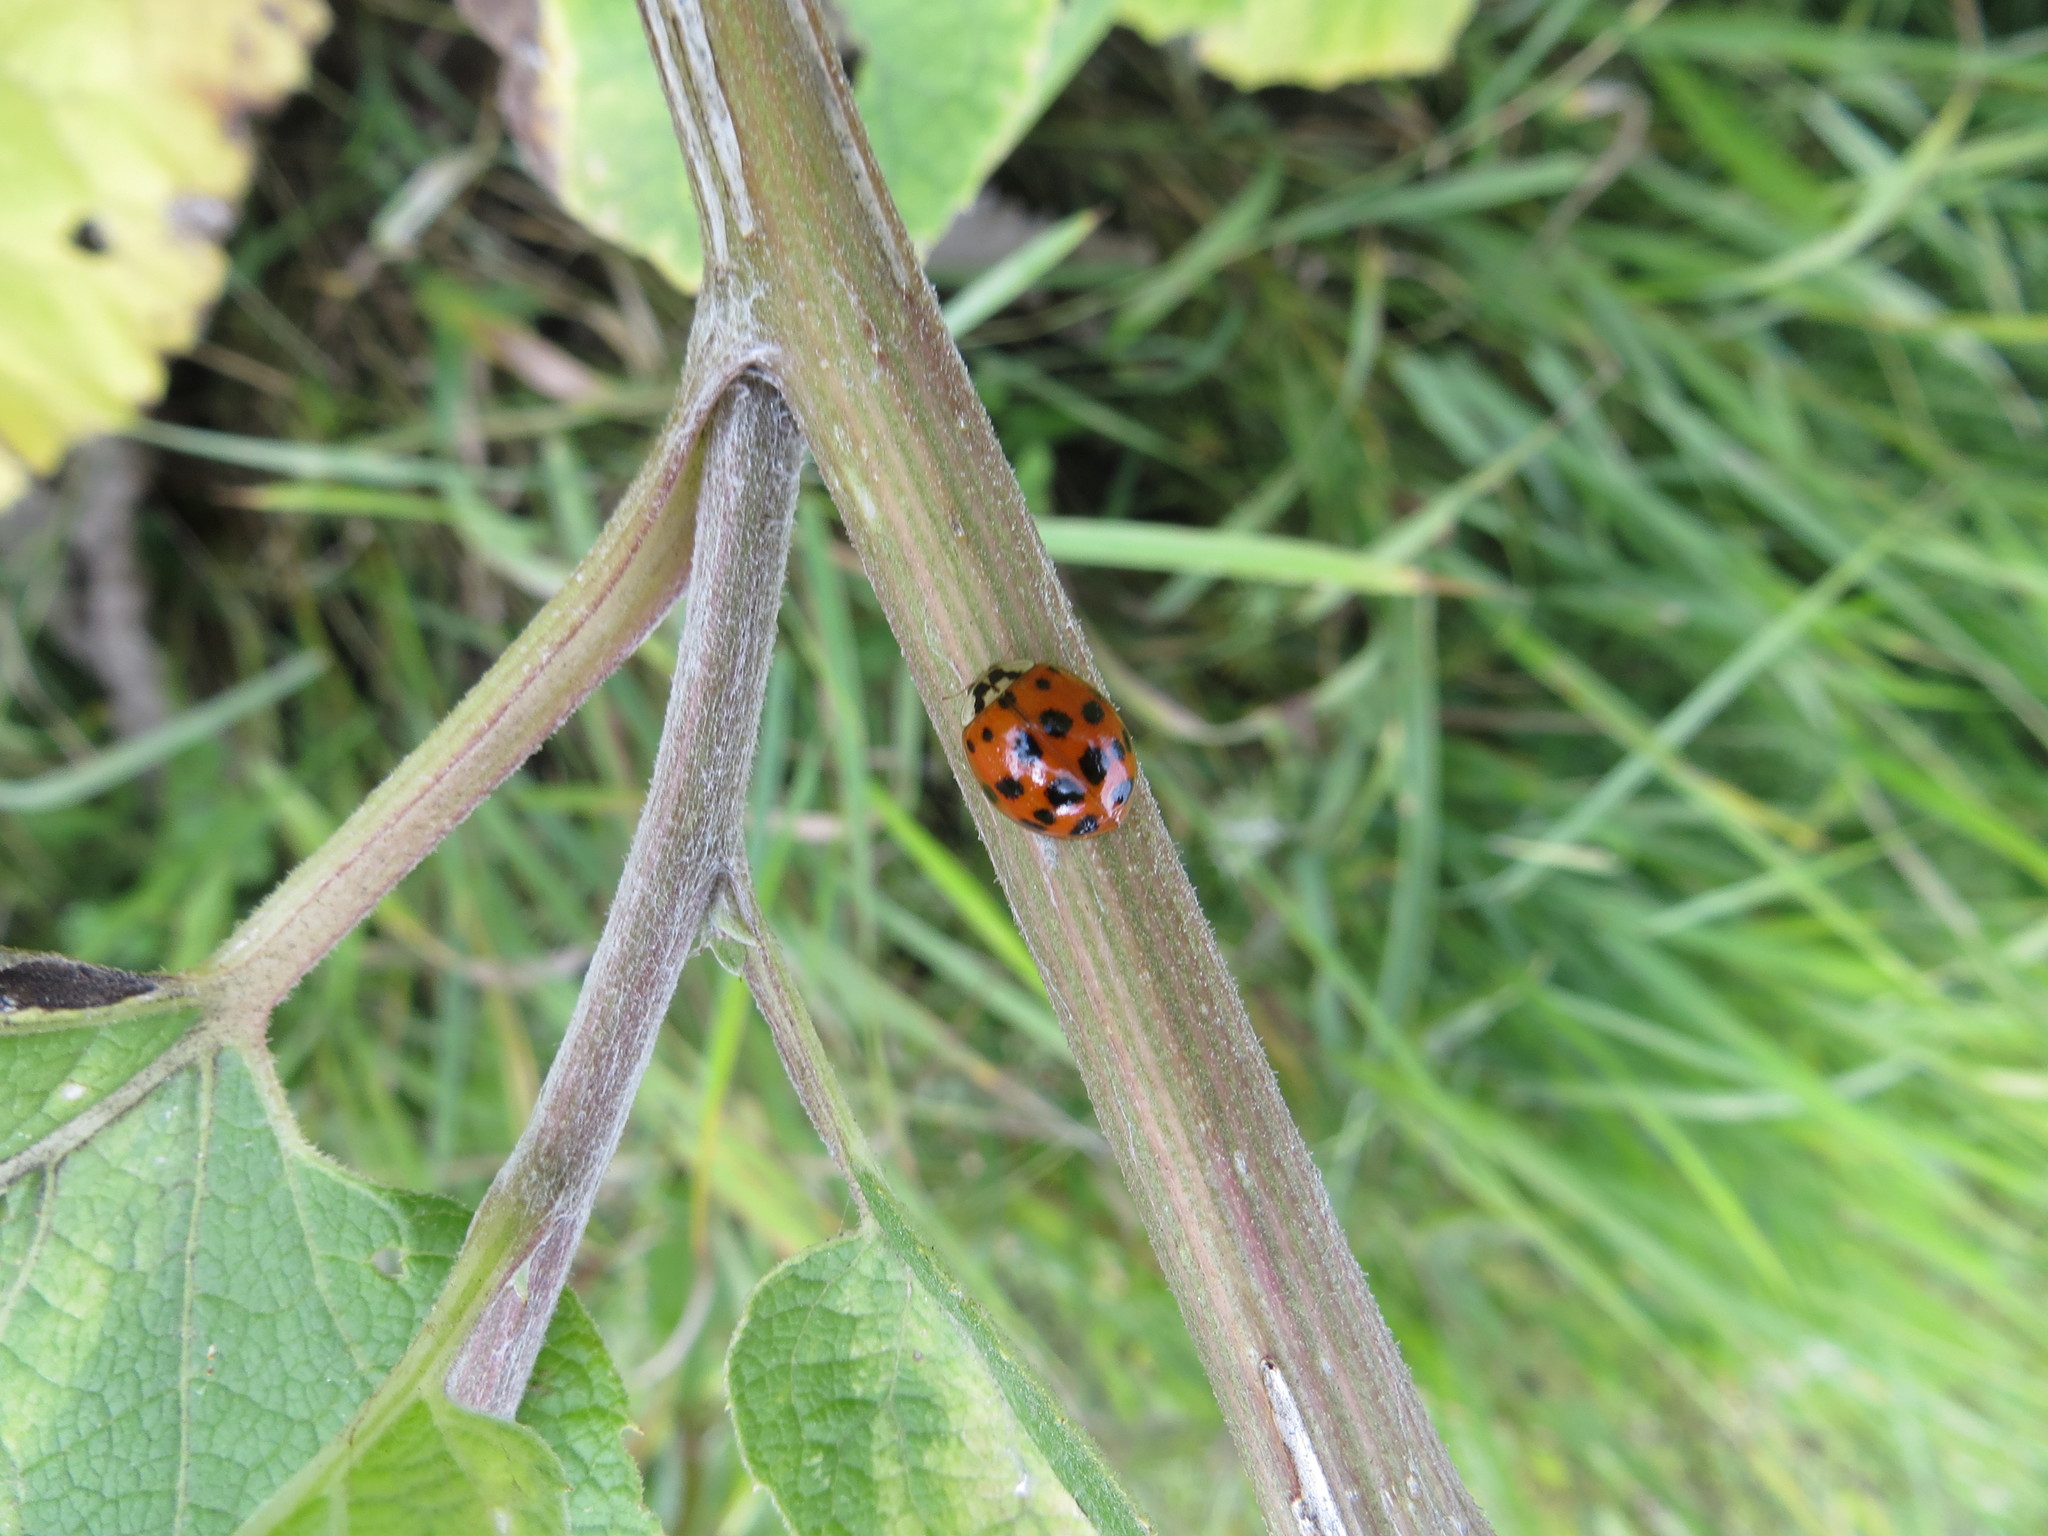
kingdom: Animalia
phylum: Arthropoda
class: Insecta
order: Coleoptera
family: Coccinellidae
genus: Harmonia
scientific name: Harmonia axyridis
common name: Harlequin ladybird
